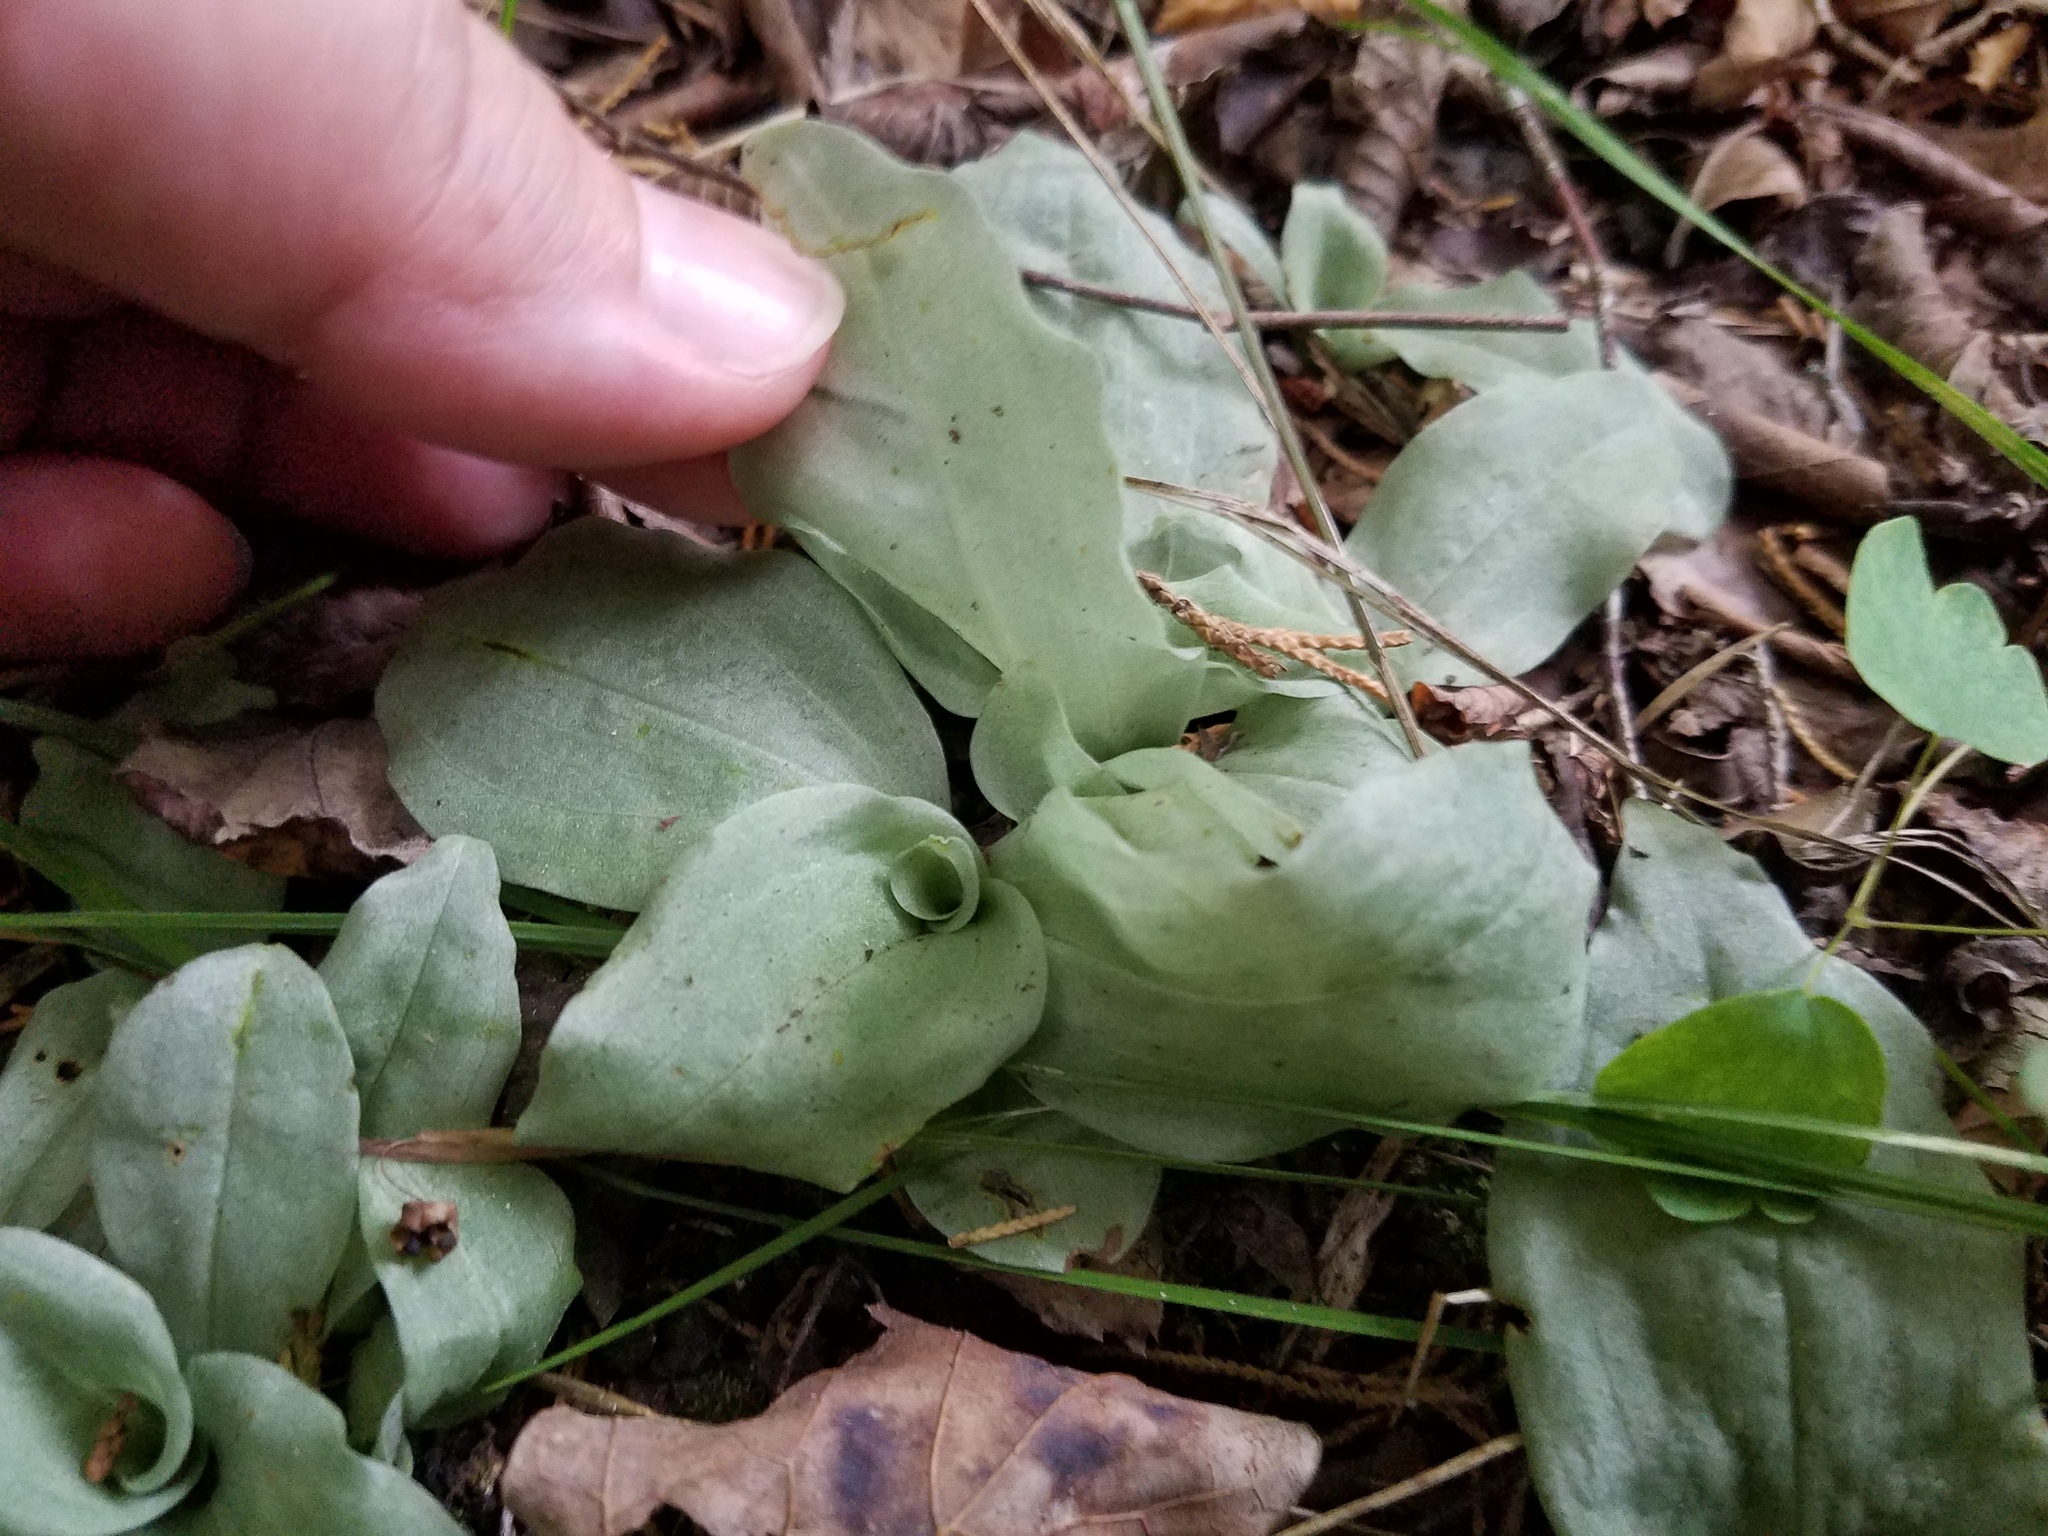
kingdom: Plantae
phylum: Tracheophyta
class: Liliopsida
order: Asparagales
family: Orchidaceae
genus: Ponthieva
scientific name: Ponthieva racemosa
